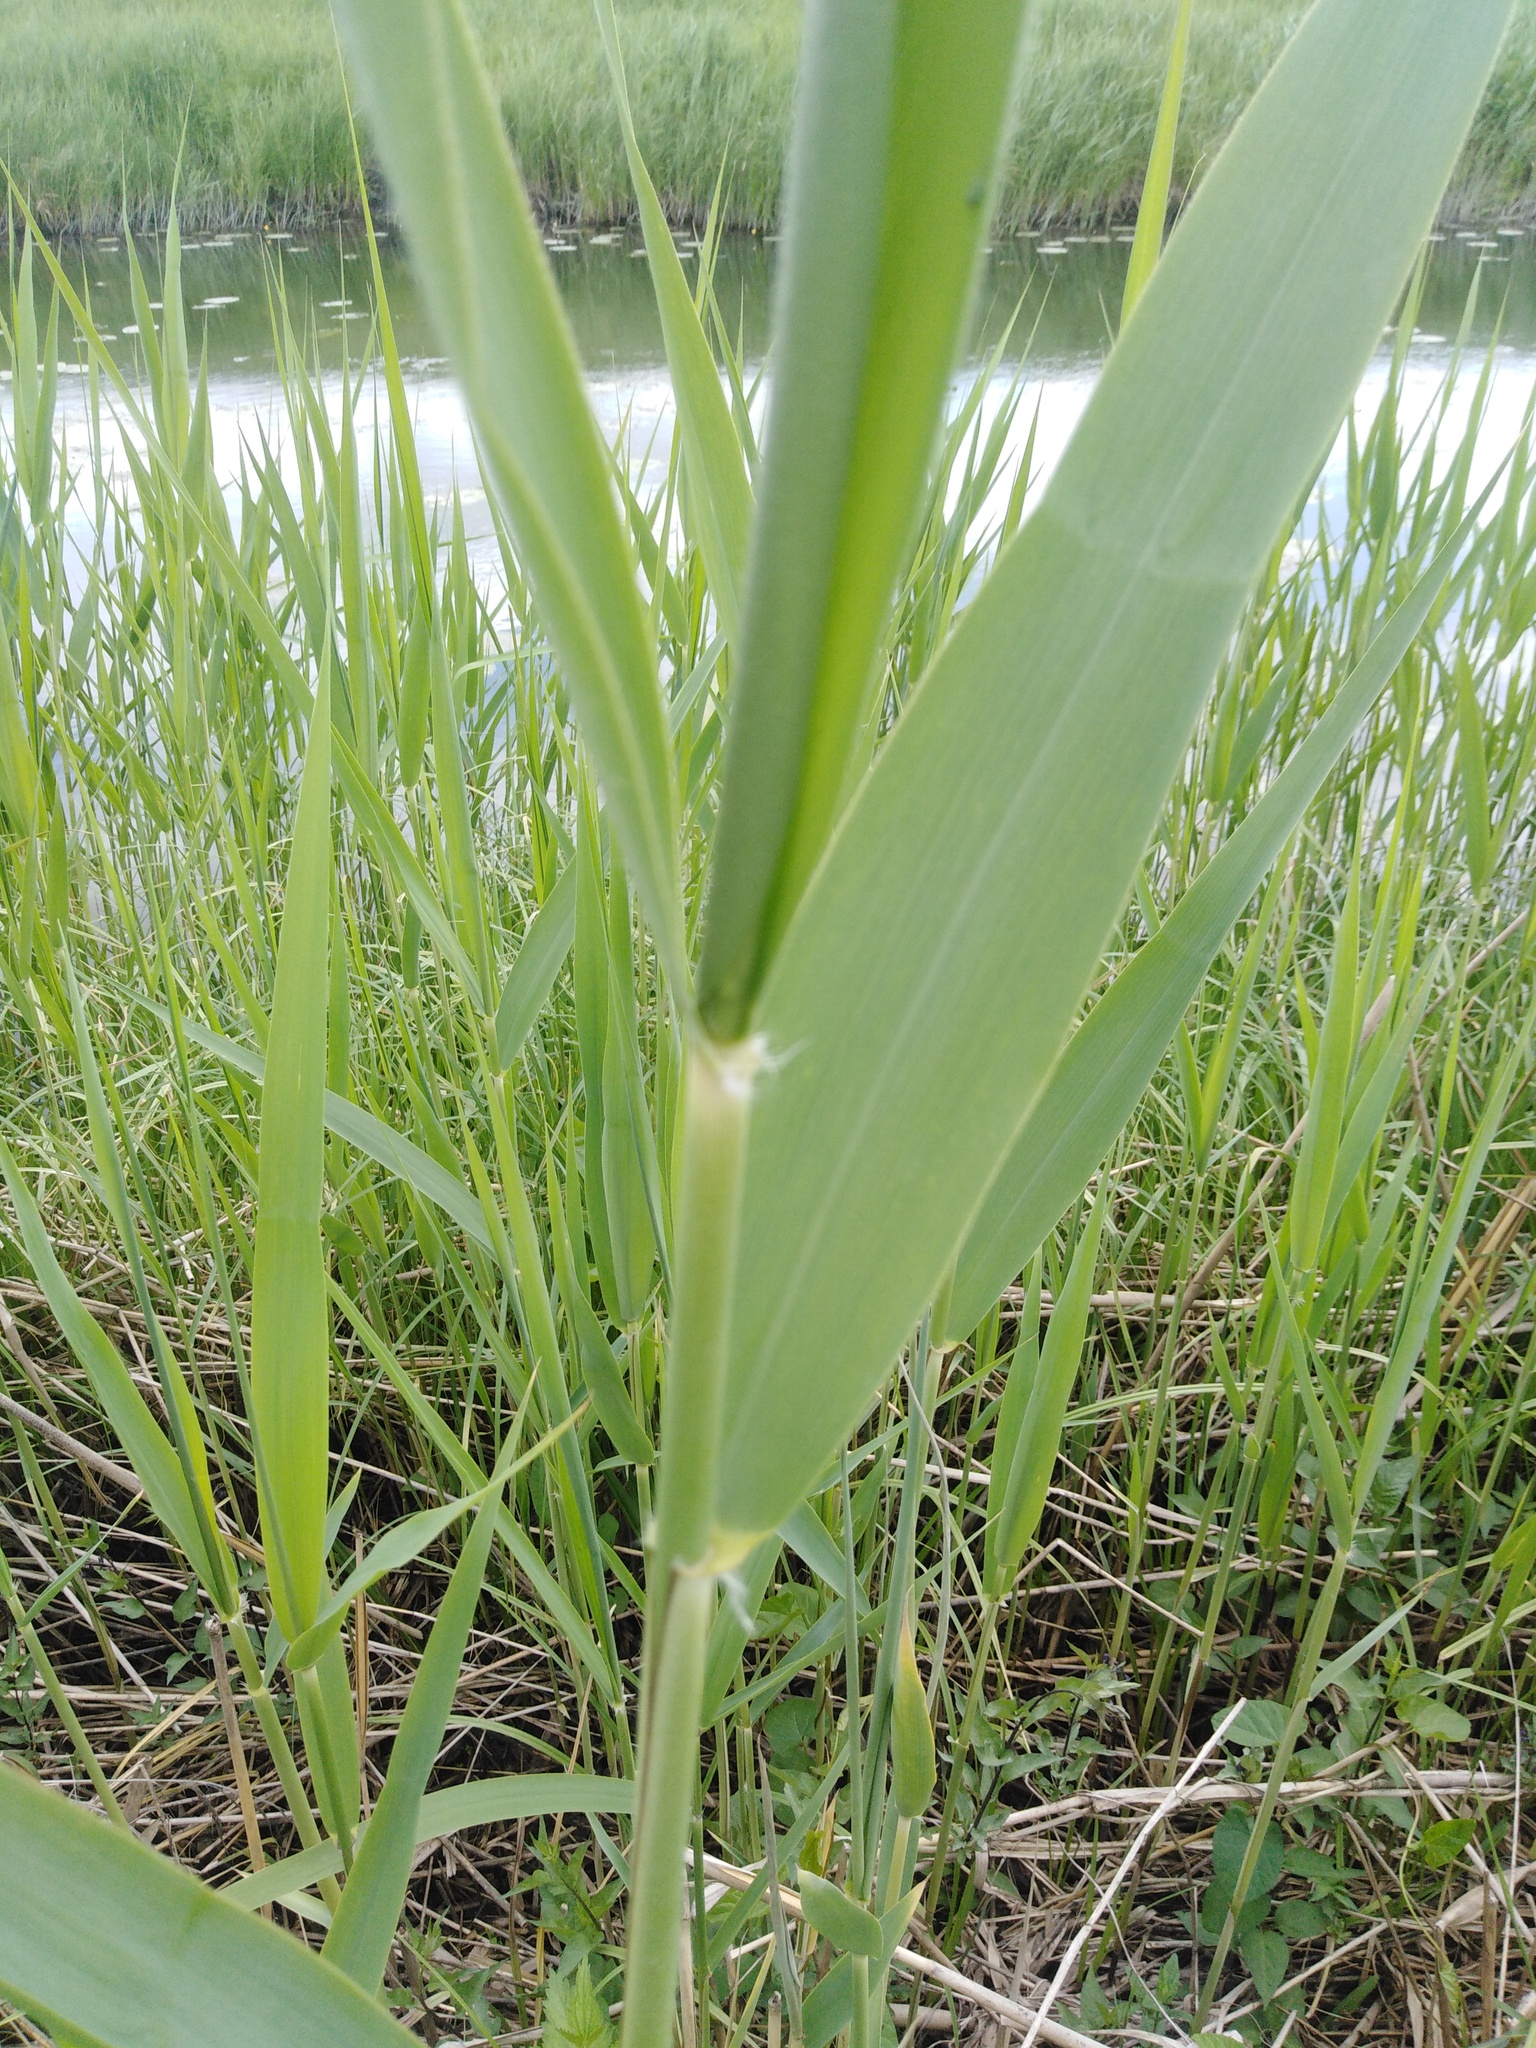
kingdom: Plantae
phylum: Tracheophyta
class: Liliopsida
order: Poales
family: Poaceae
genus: Phragmites
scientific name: Phragmites australis
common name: Common reed
